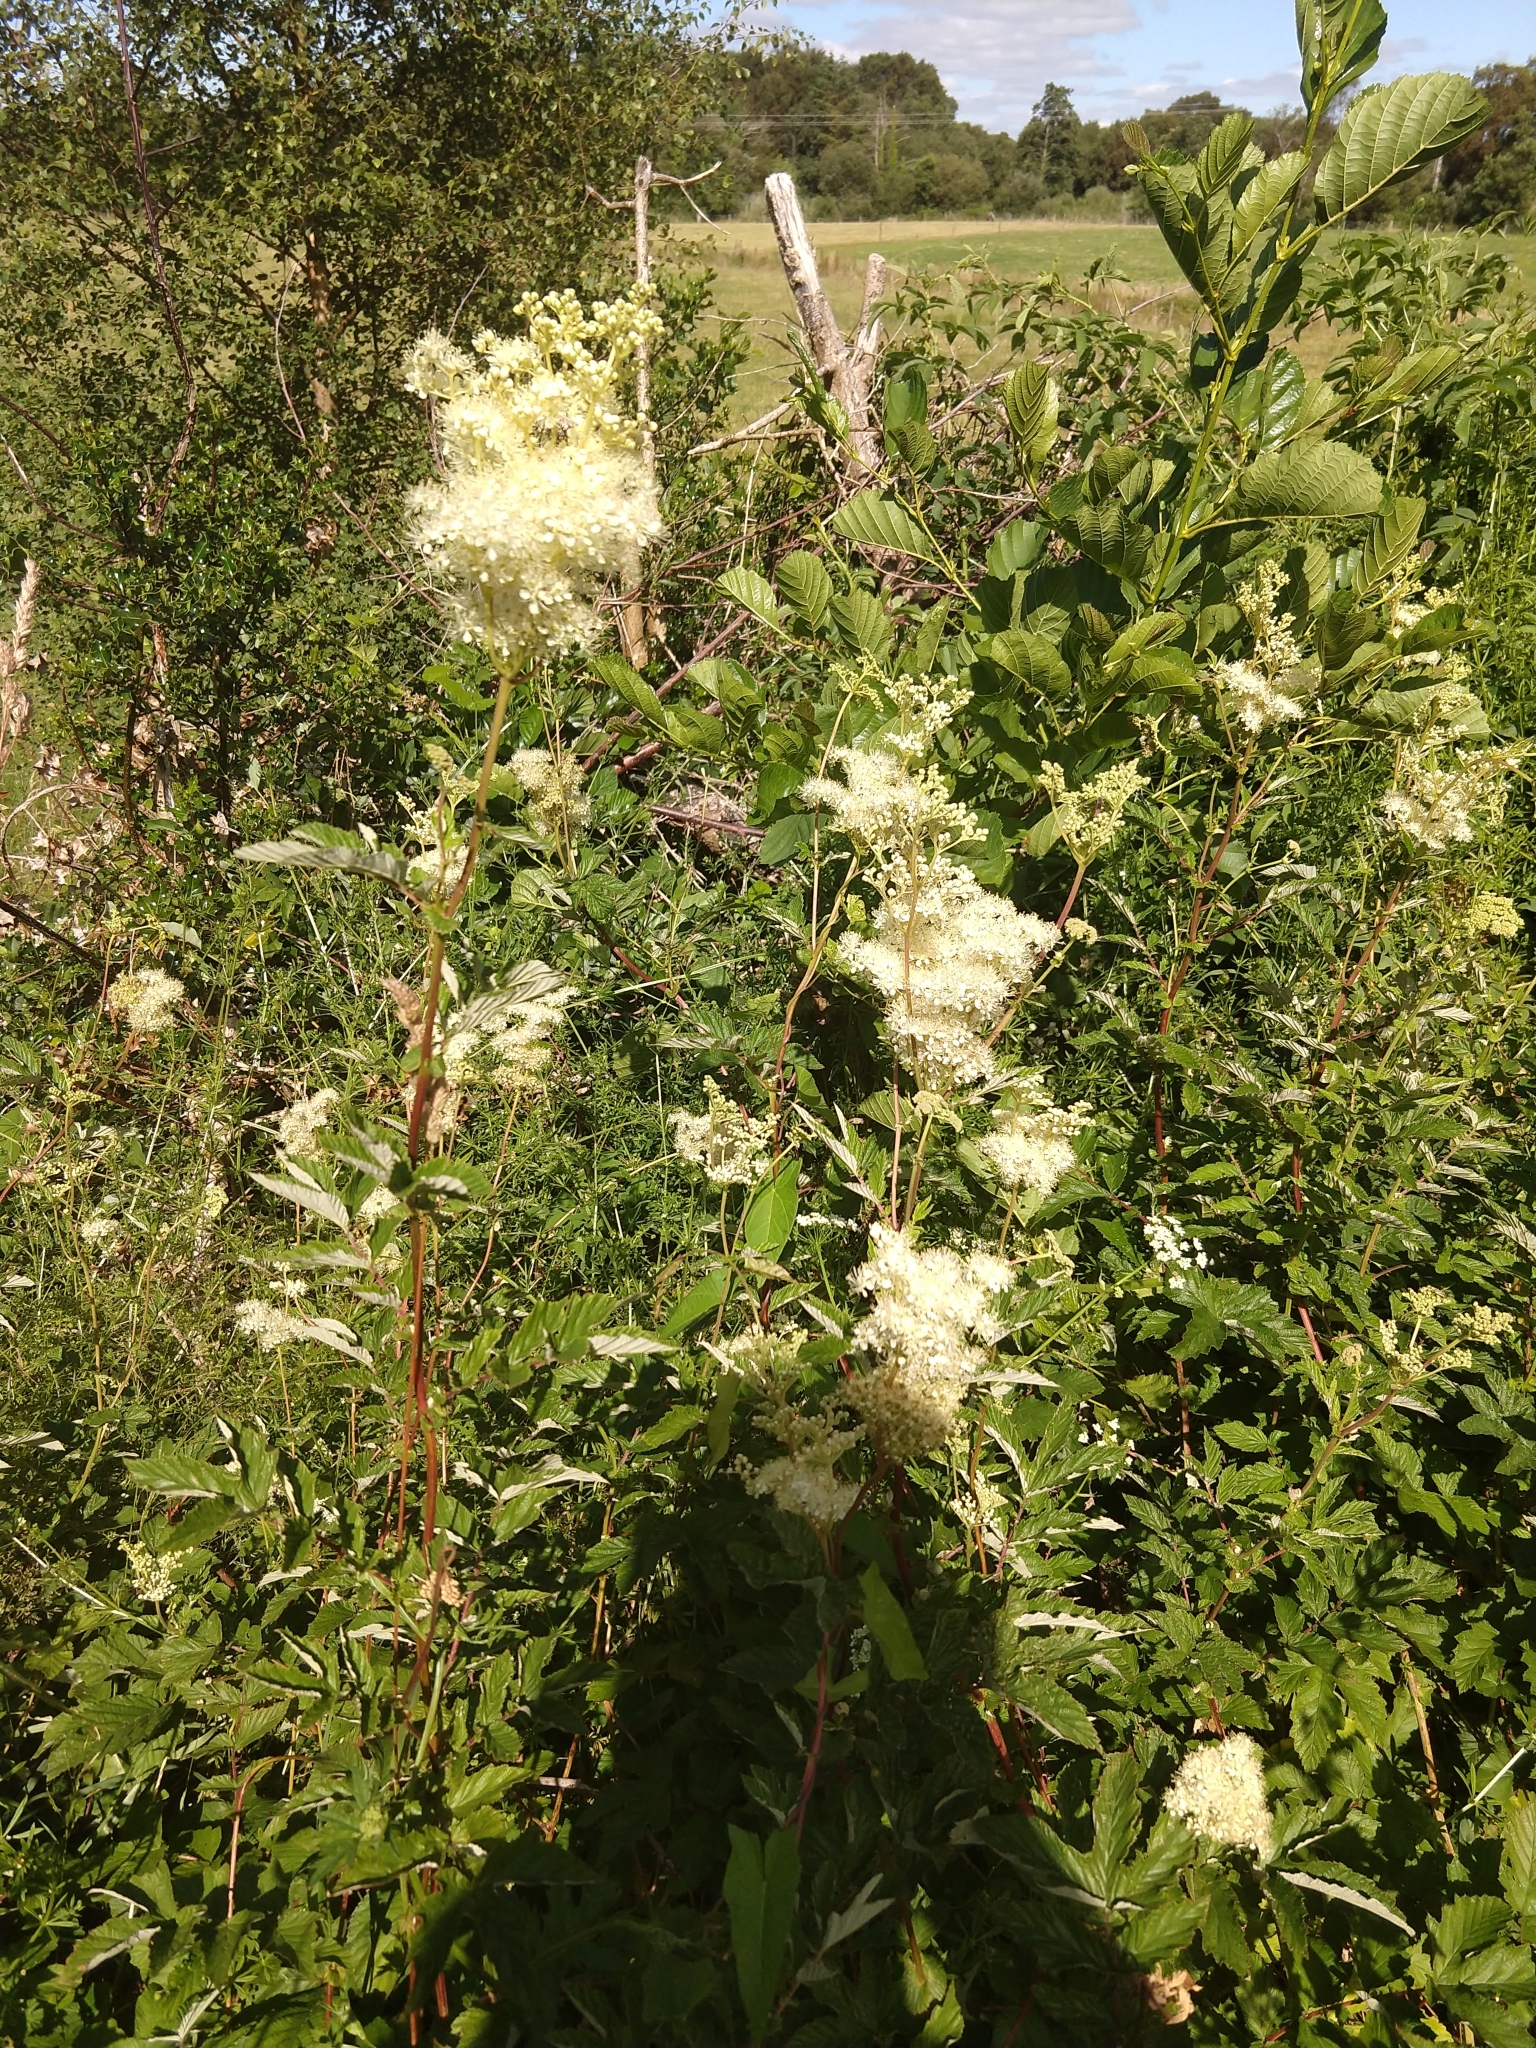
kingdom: Plantae
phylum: Tracheophyta
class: Magnoliopsida
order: Rosales
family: Rosaceae
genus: Filipendula
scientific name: Filipendula ulmaria
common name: Meadowsweet
